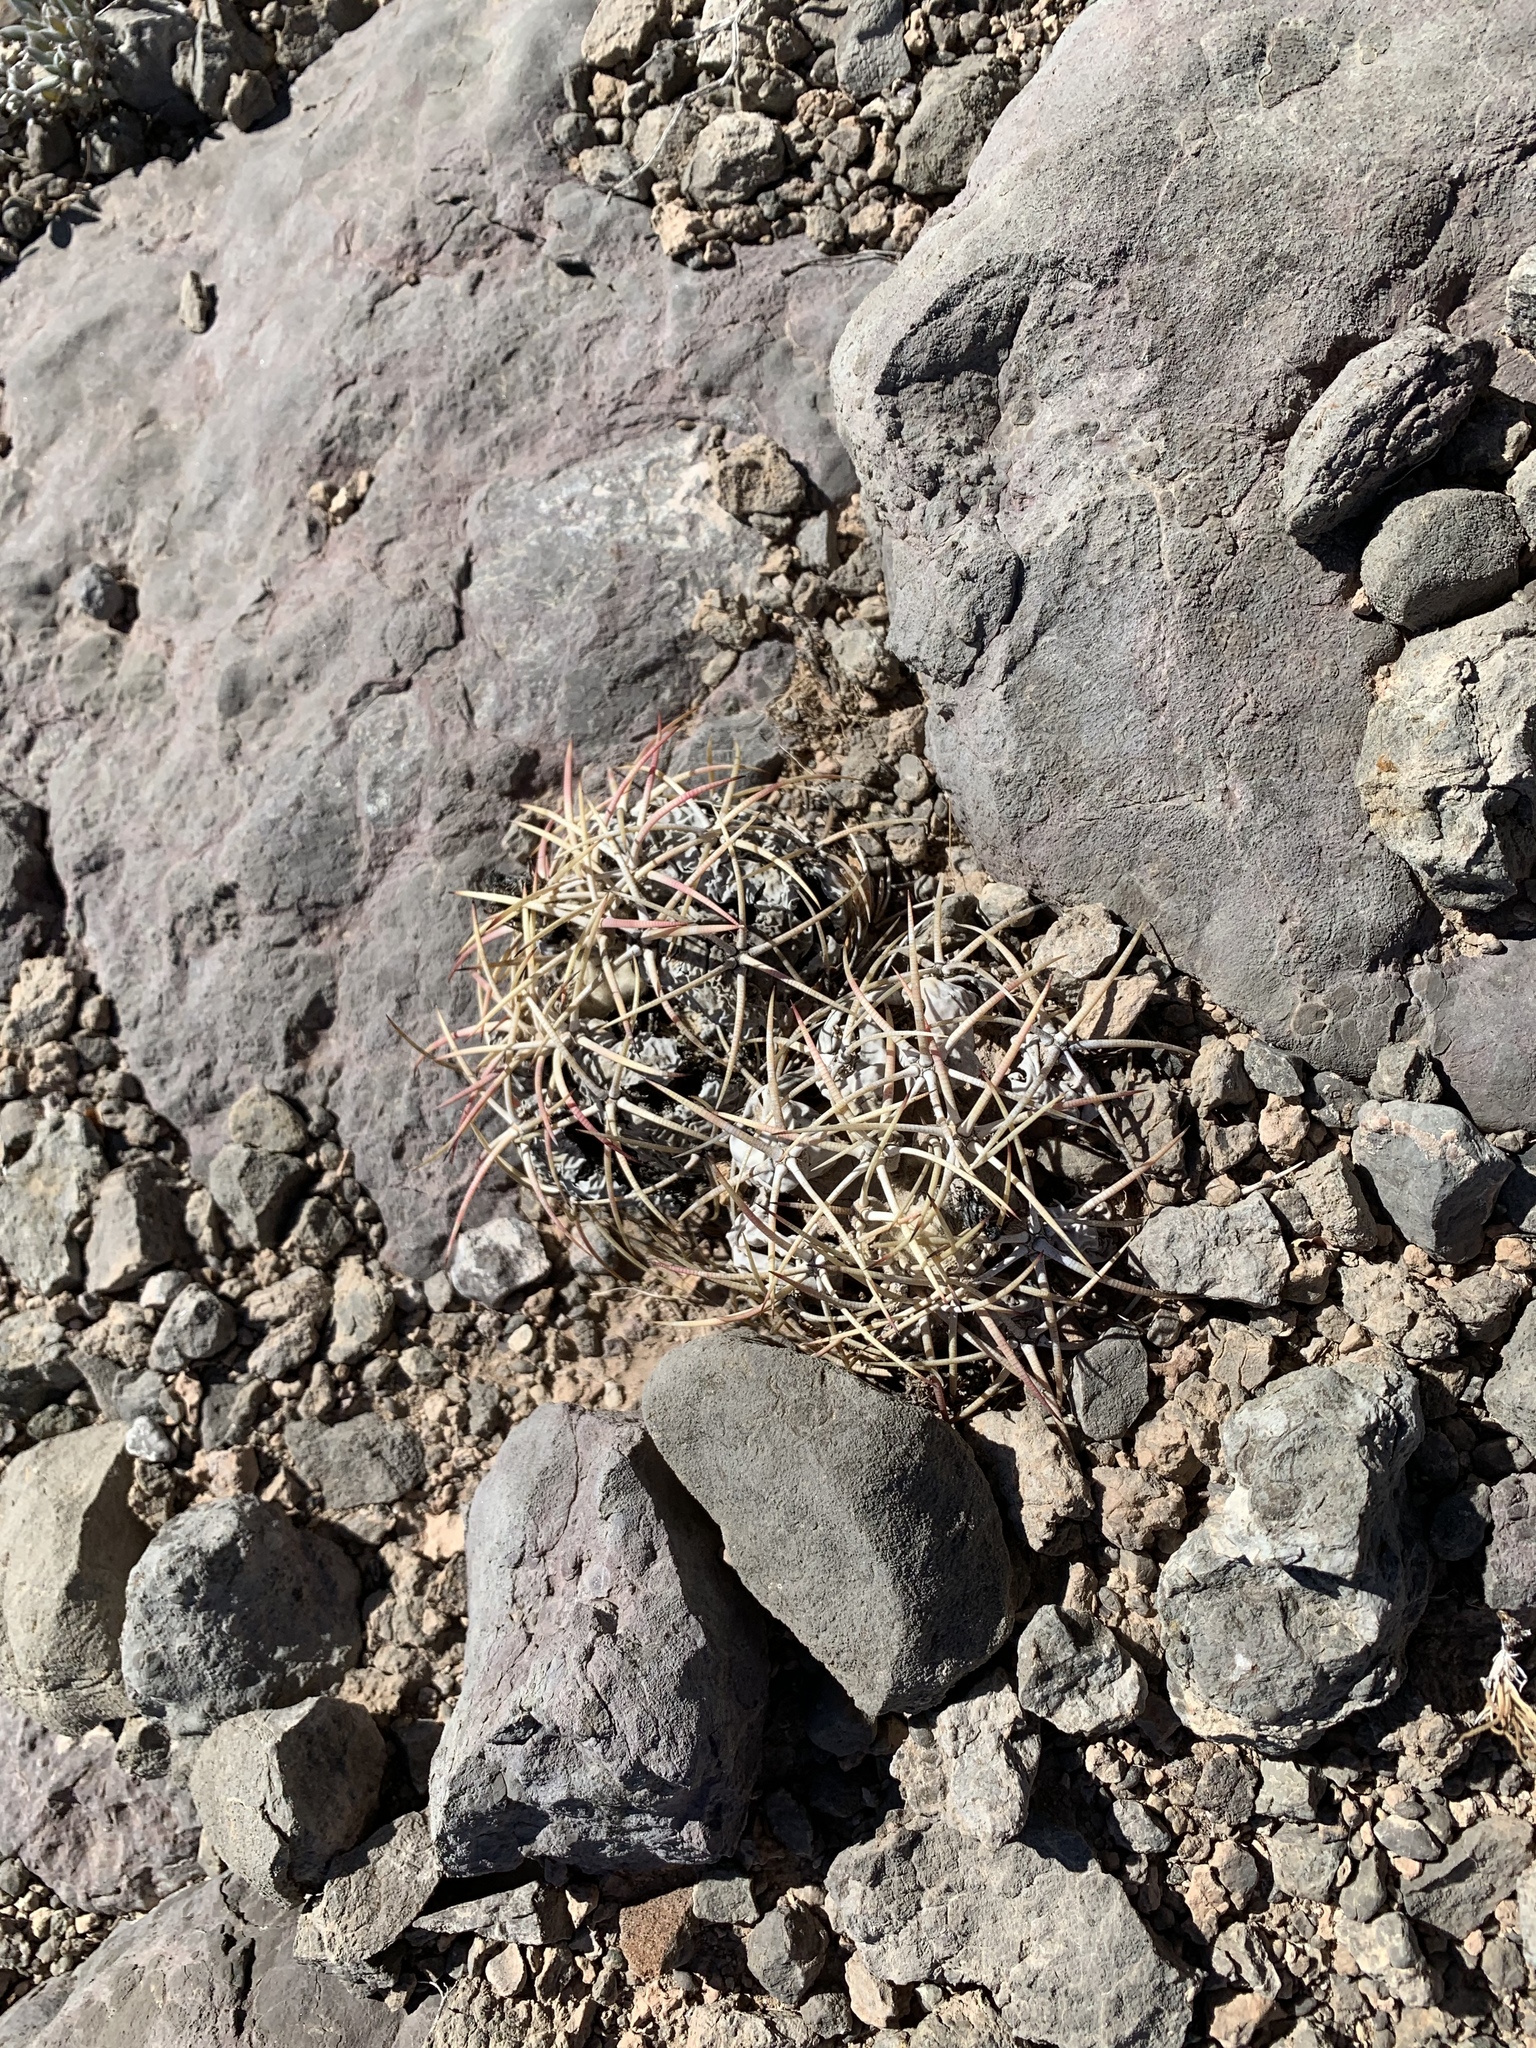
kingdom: Plantae
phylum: Tracheophyta
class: Magnoliopsida
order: Caryophyllales
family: Cactaceae
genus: Echinocactus
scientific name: Echinocactus horizonthalonius
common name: Devilshead
